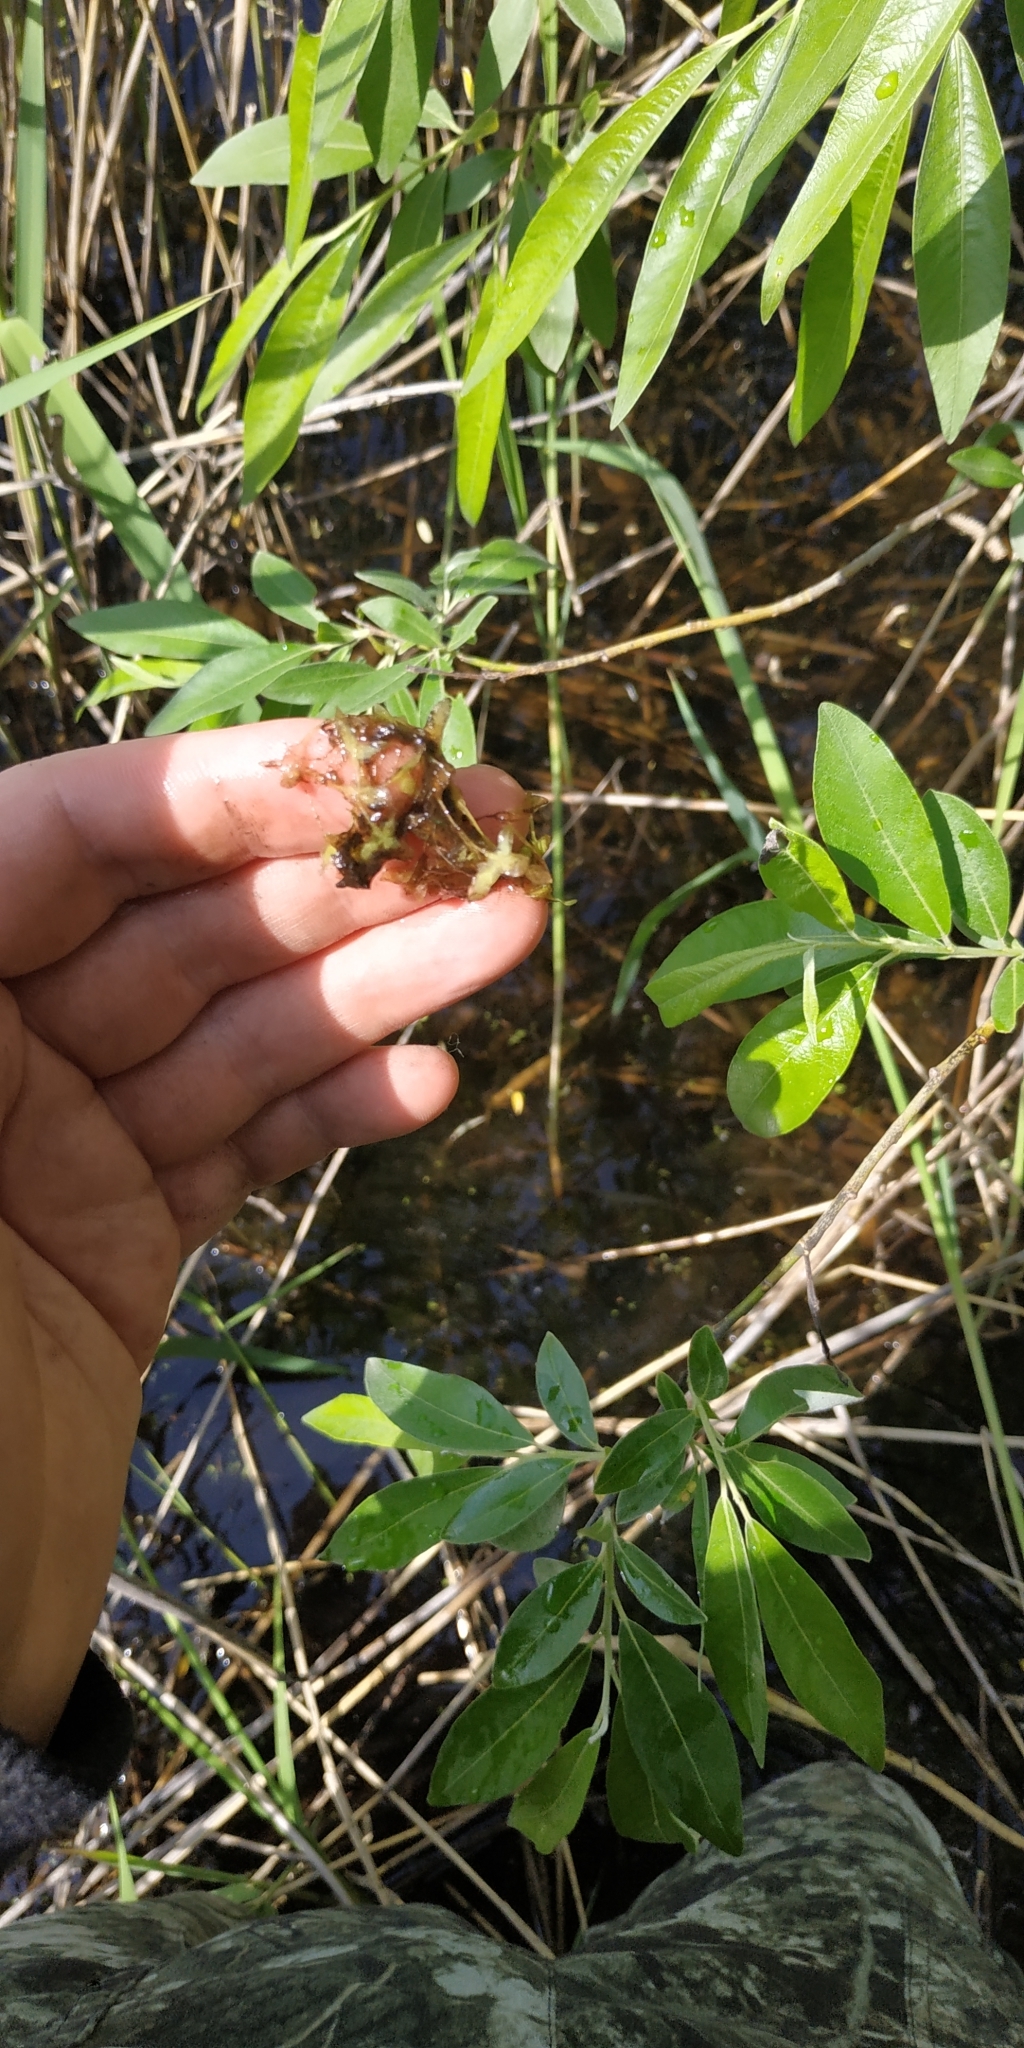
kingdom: Plantae
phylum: Tracheophyta
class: Liliopsida
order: Alismatales
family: Araceae
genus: Lemna
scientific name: Lemna trisulca
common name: Ivy-leaved duckweed
